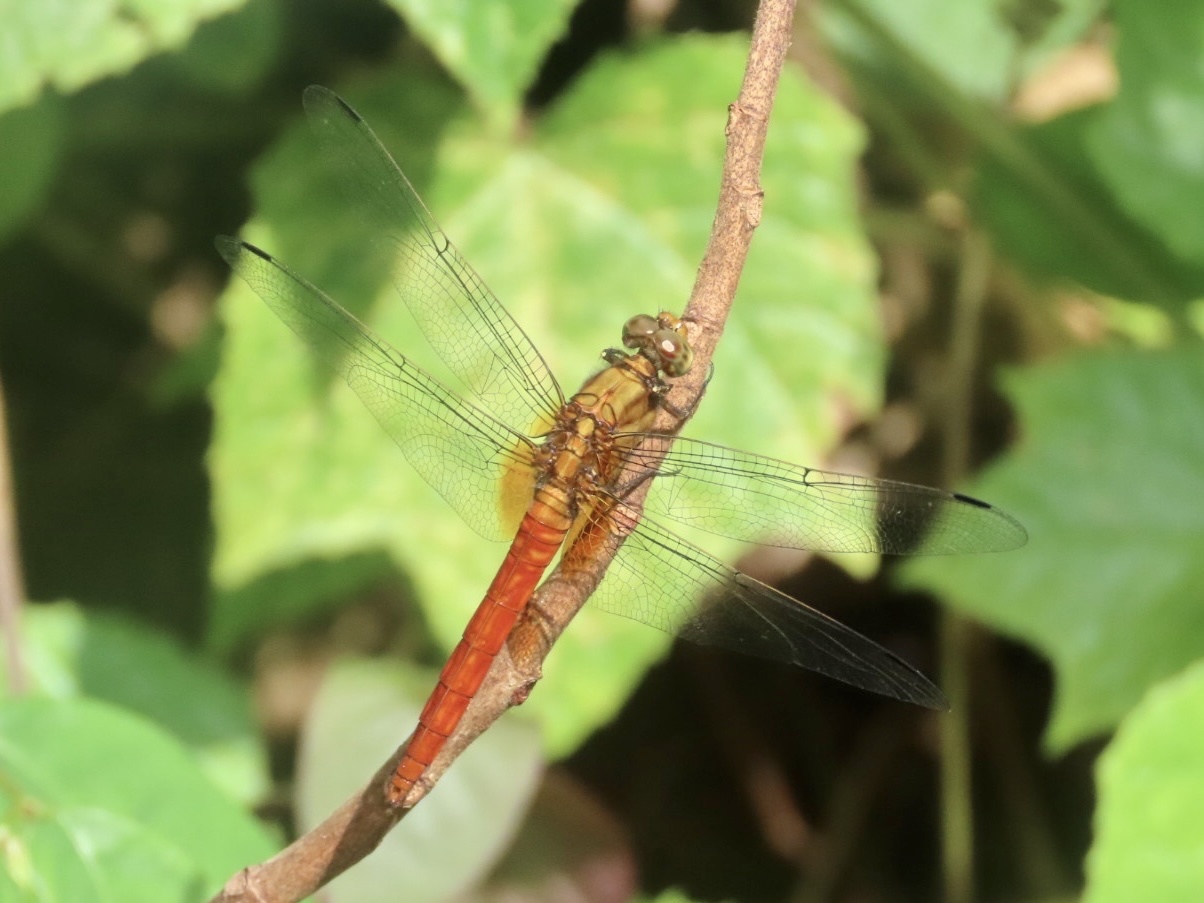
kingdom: Animalia
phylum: Arthropoda
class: Insecta
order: Odonata
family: Libellulidae
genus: Orthetrum
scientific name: Orthetrum testaceum
